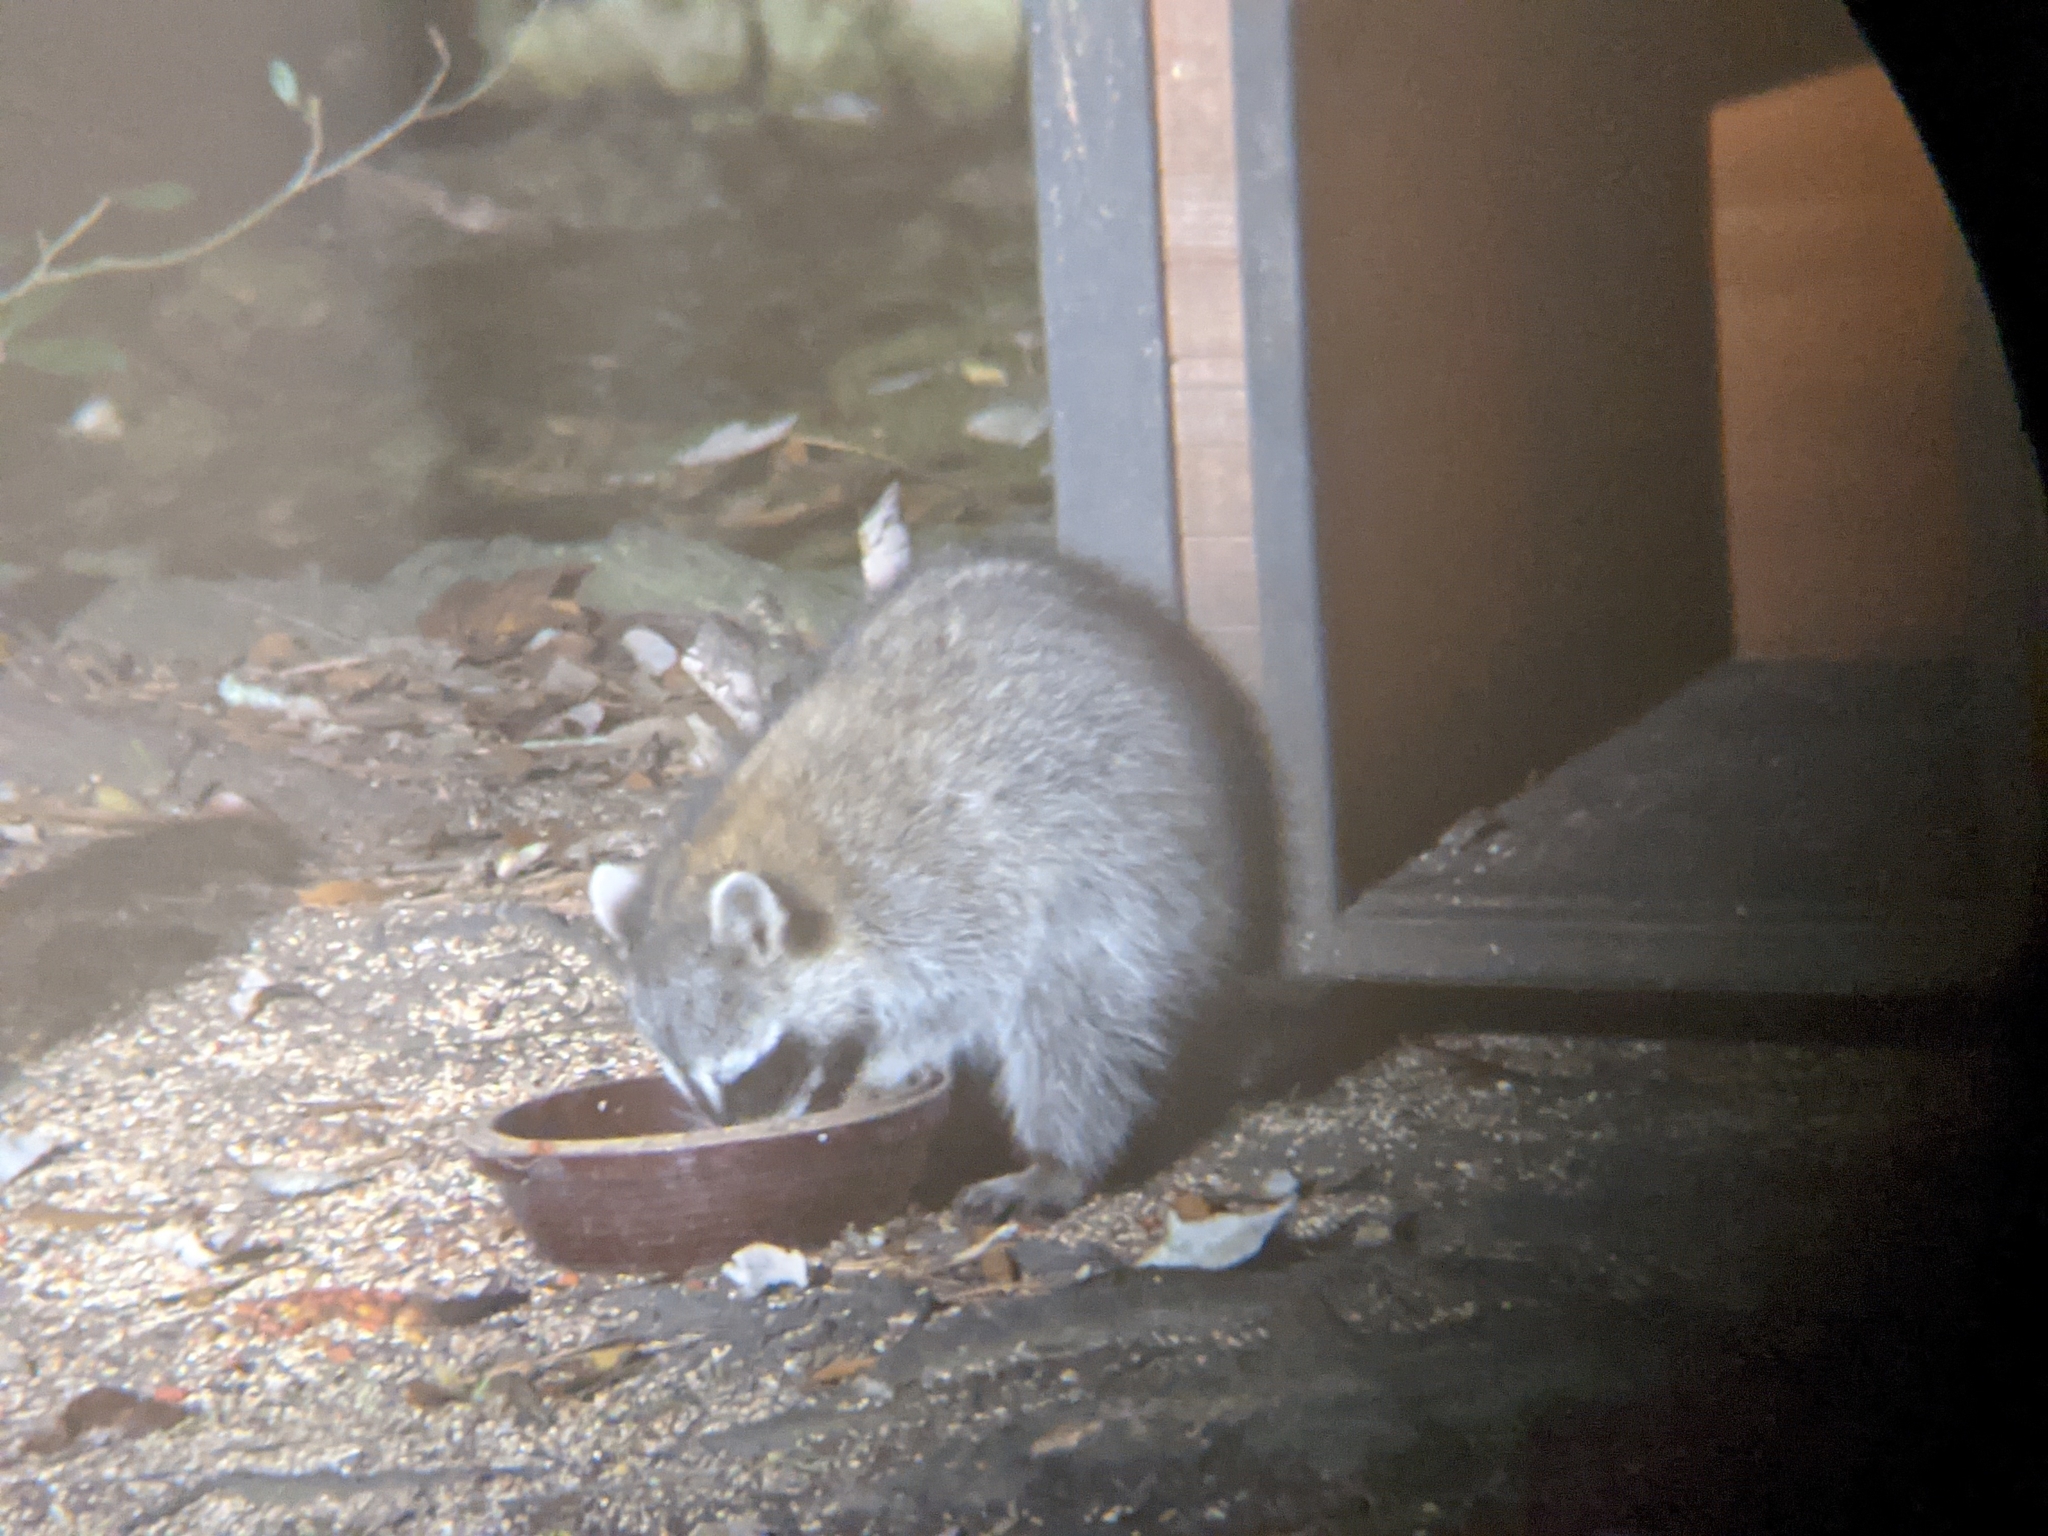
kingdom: Animalia
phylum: Chordata
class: Mammalia
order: Carnivora
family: Procyonidae
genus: Procyon
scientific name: Procyon lotor
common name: Raccoon
